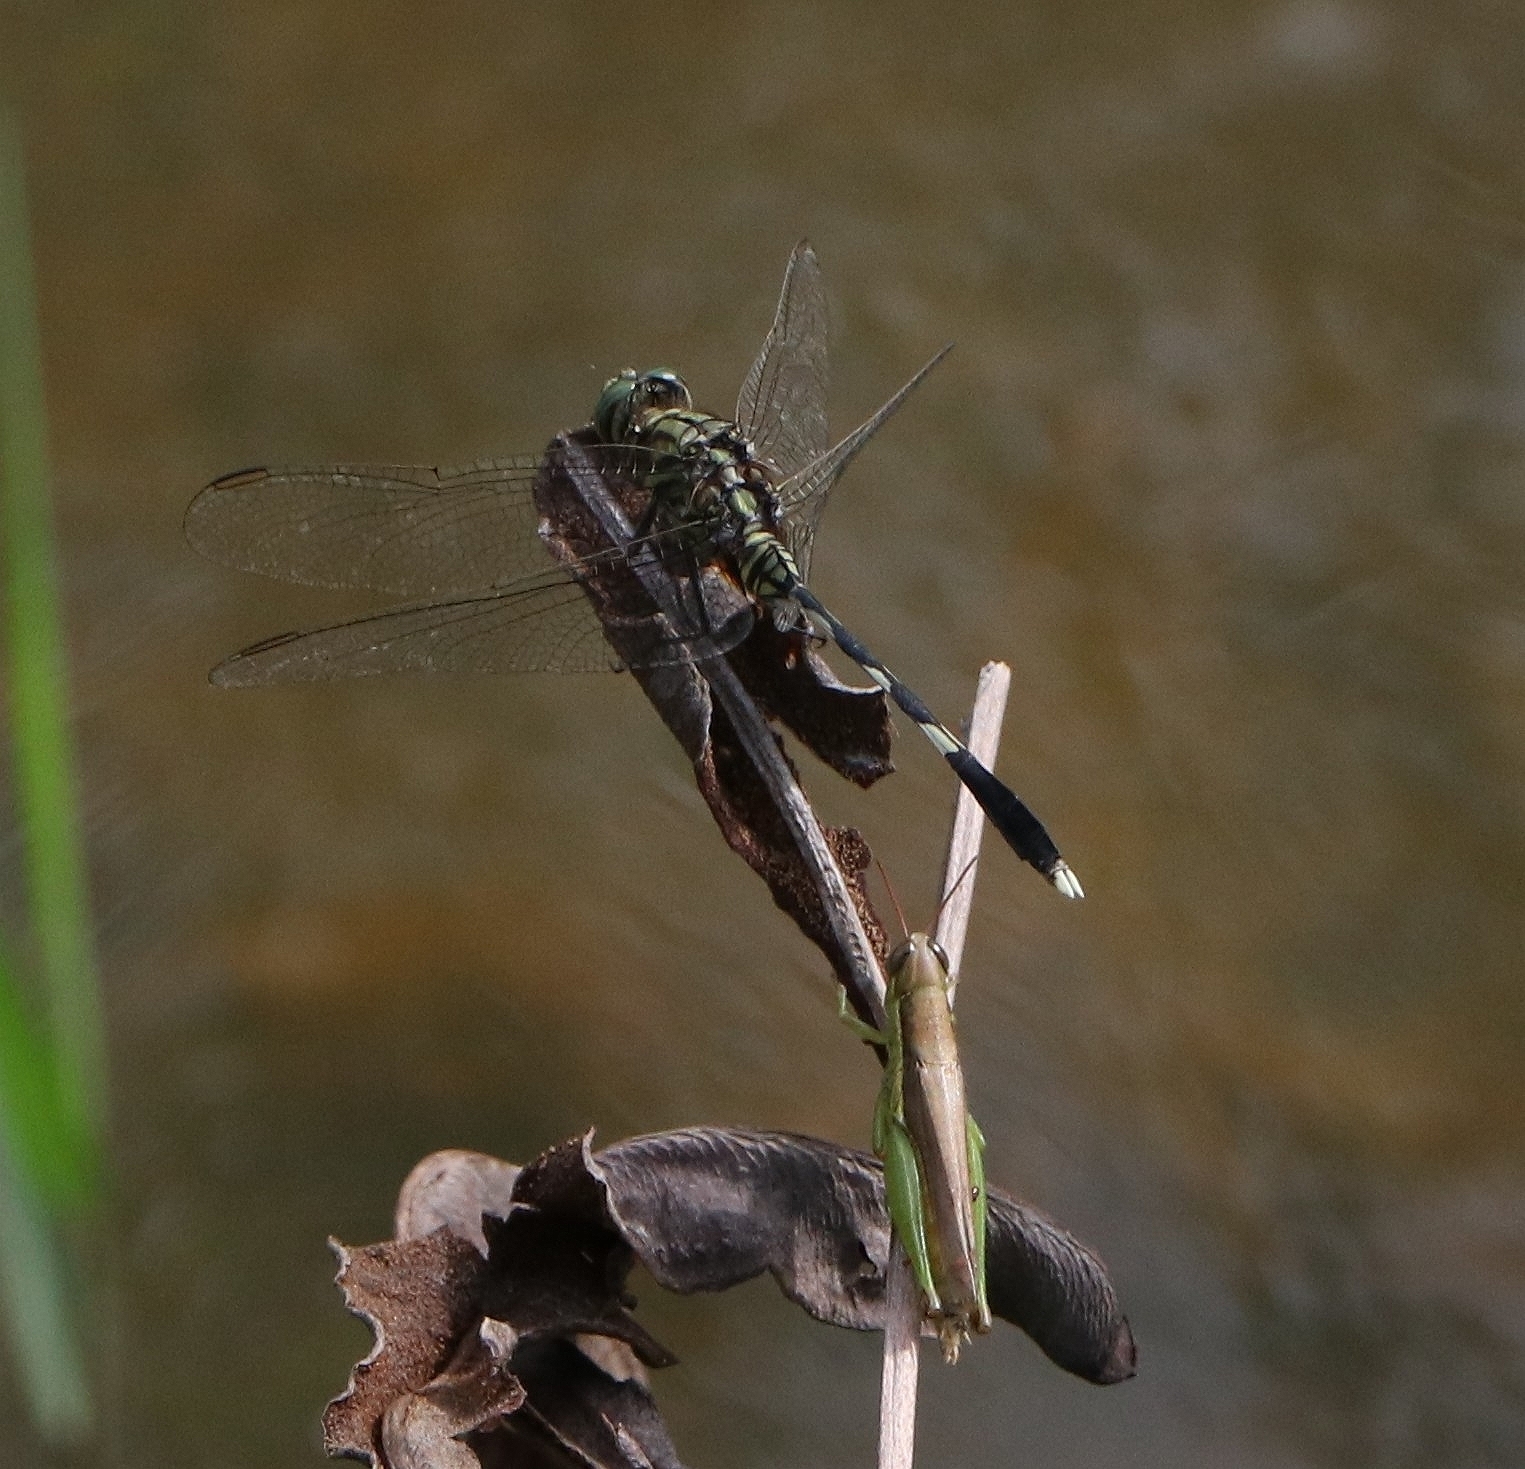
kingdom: Animalia
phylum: Arthropoda
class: Insecta
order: Odonata
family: Libellulidae
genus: Orthetrum
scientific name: Orthetrum sabina
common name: Slender skimmer
